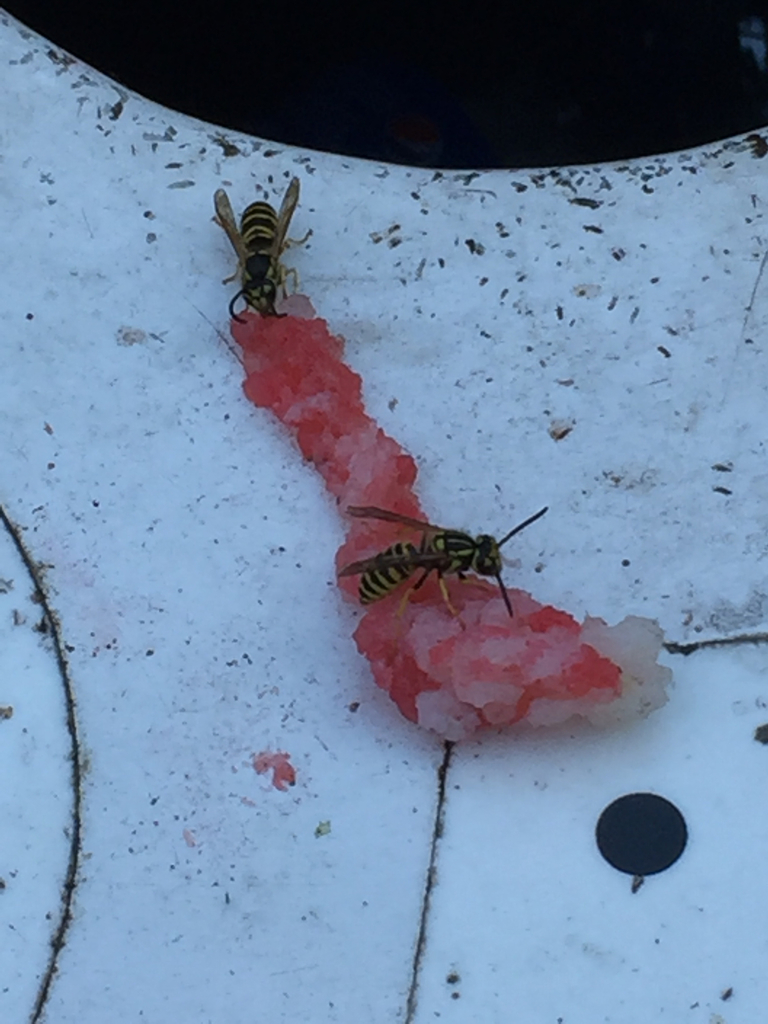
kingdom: Animalia
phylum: Arthropoda
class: Insecta
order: Hymenoptera
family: Vespidae
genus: Vespula
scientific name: Vespula maculifrons
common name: Eastern yellowjacket
